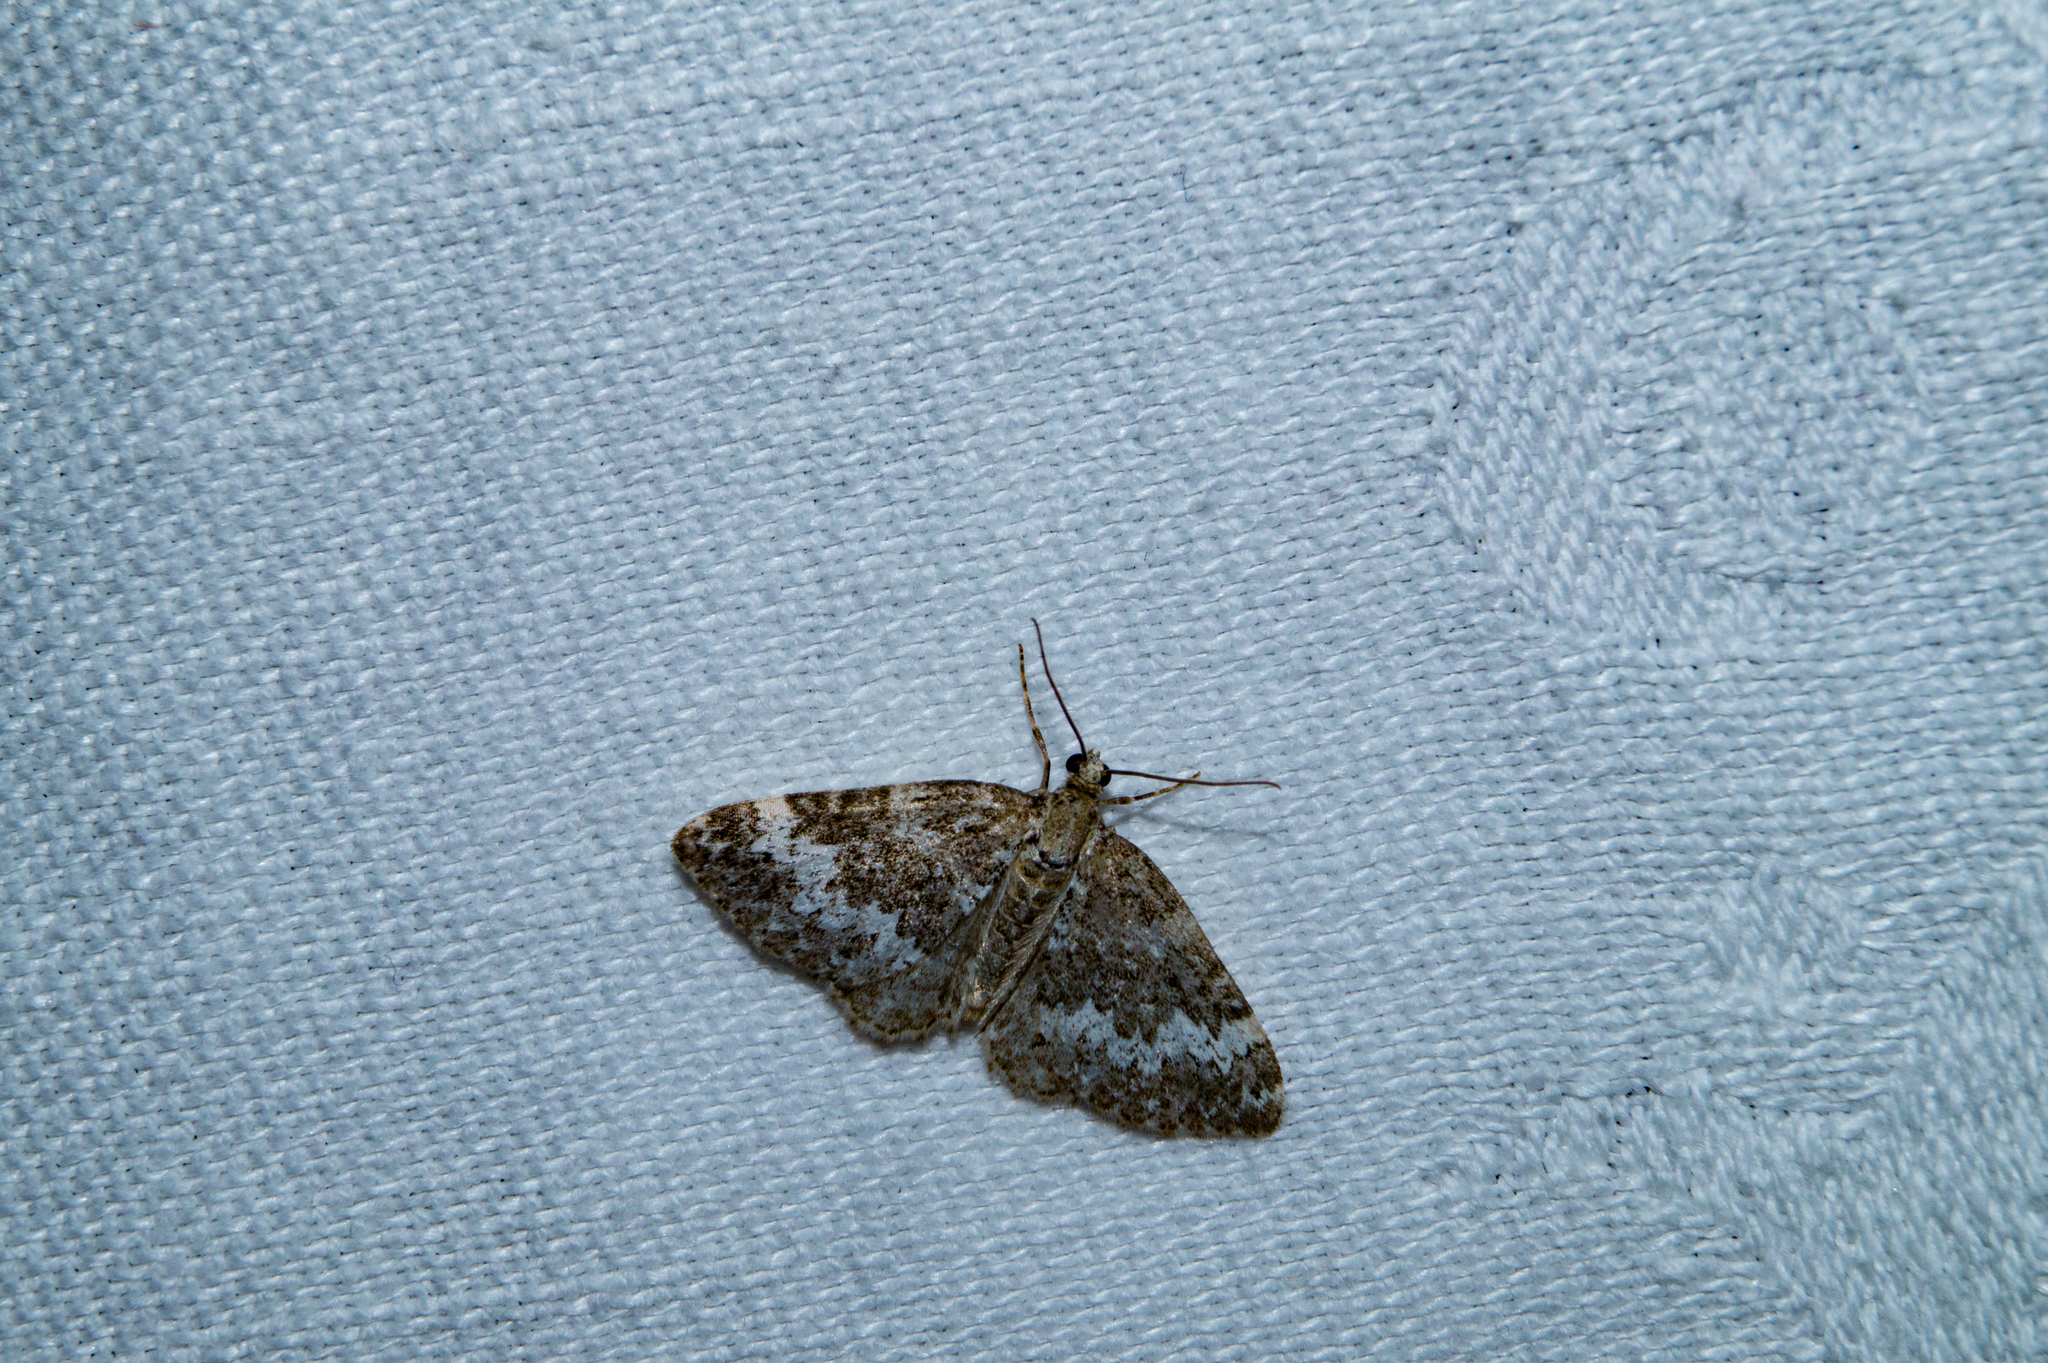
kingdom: Animalia
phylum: Arthropoda
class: Insecta
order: Lepidoptera
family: Geometridae
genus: Perizoma
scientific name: Perizoma alchemillata
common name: Small rivulet
